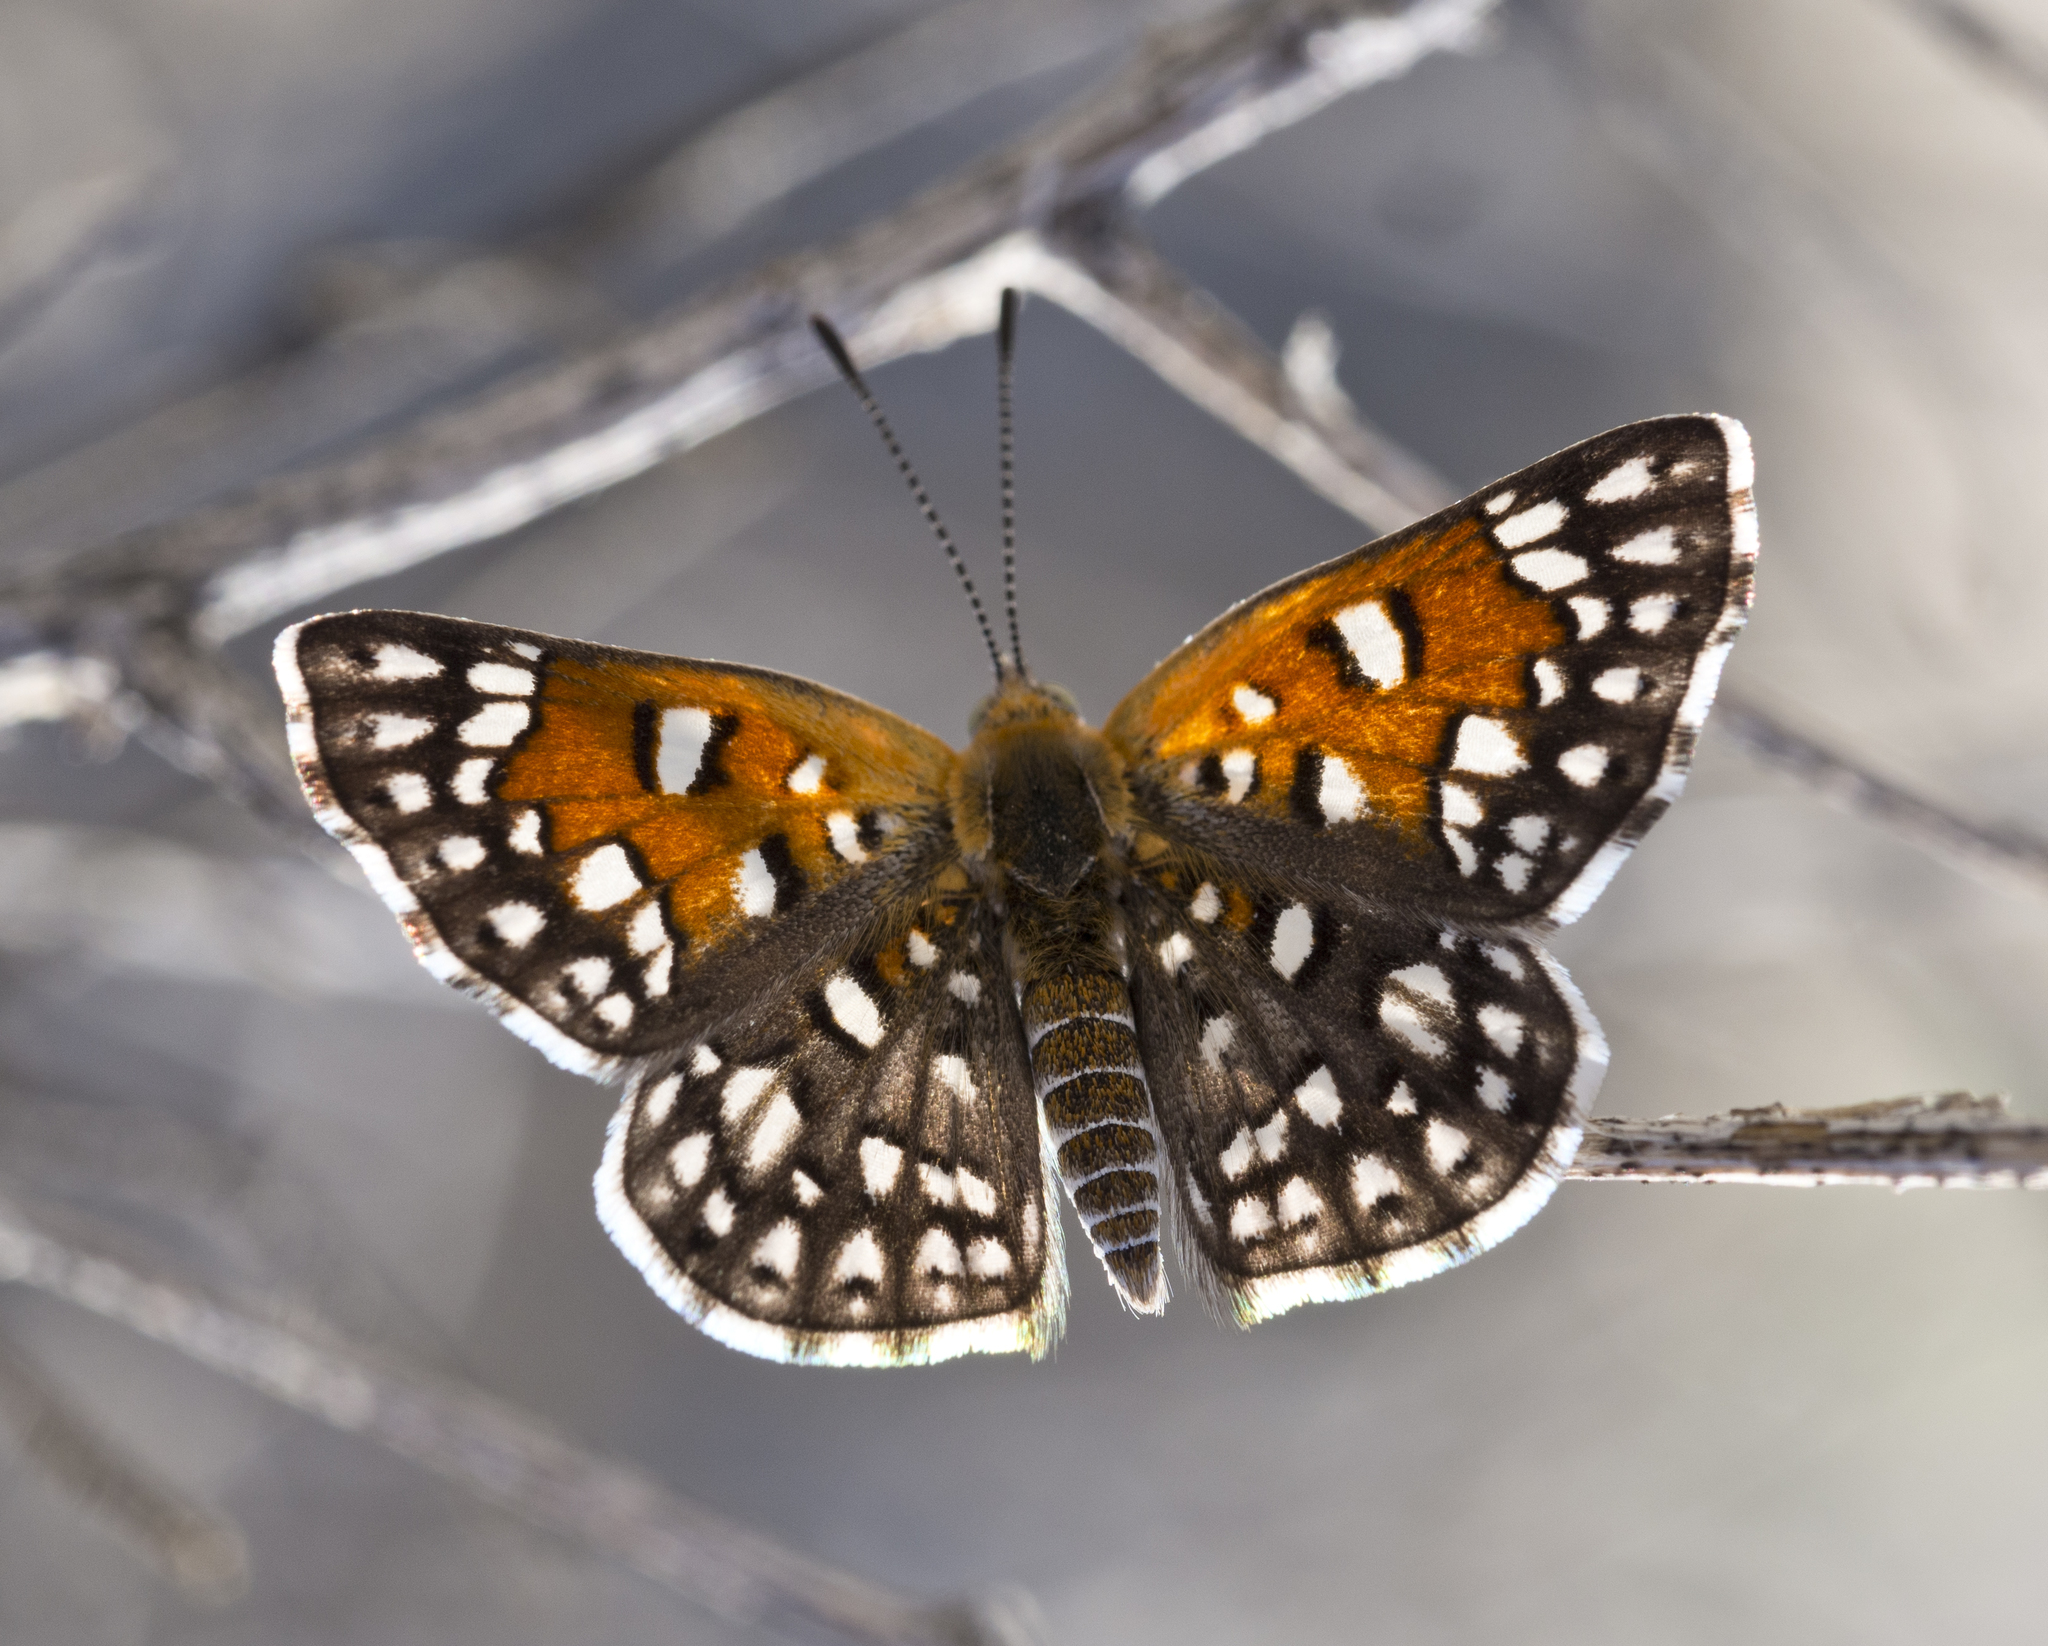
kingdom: Animalia
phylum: Arthropoda
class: Insecta
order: Lepidoptera
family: Riodinidae
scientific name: Riodinidae
